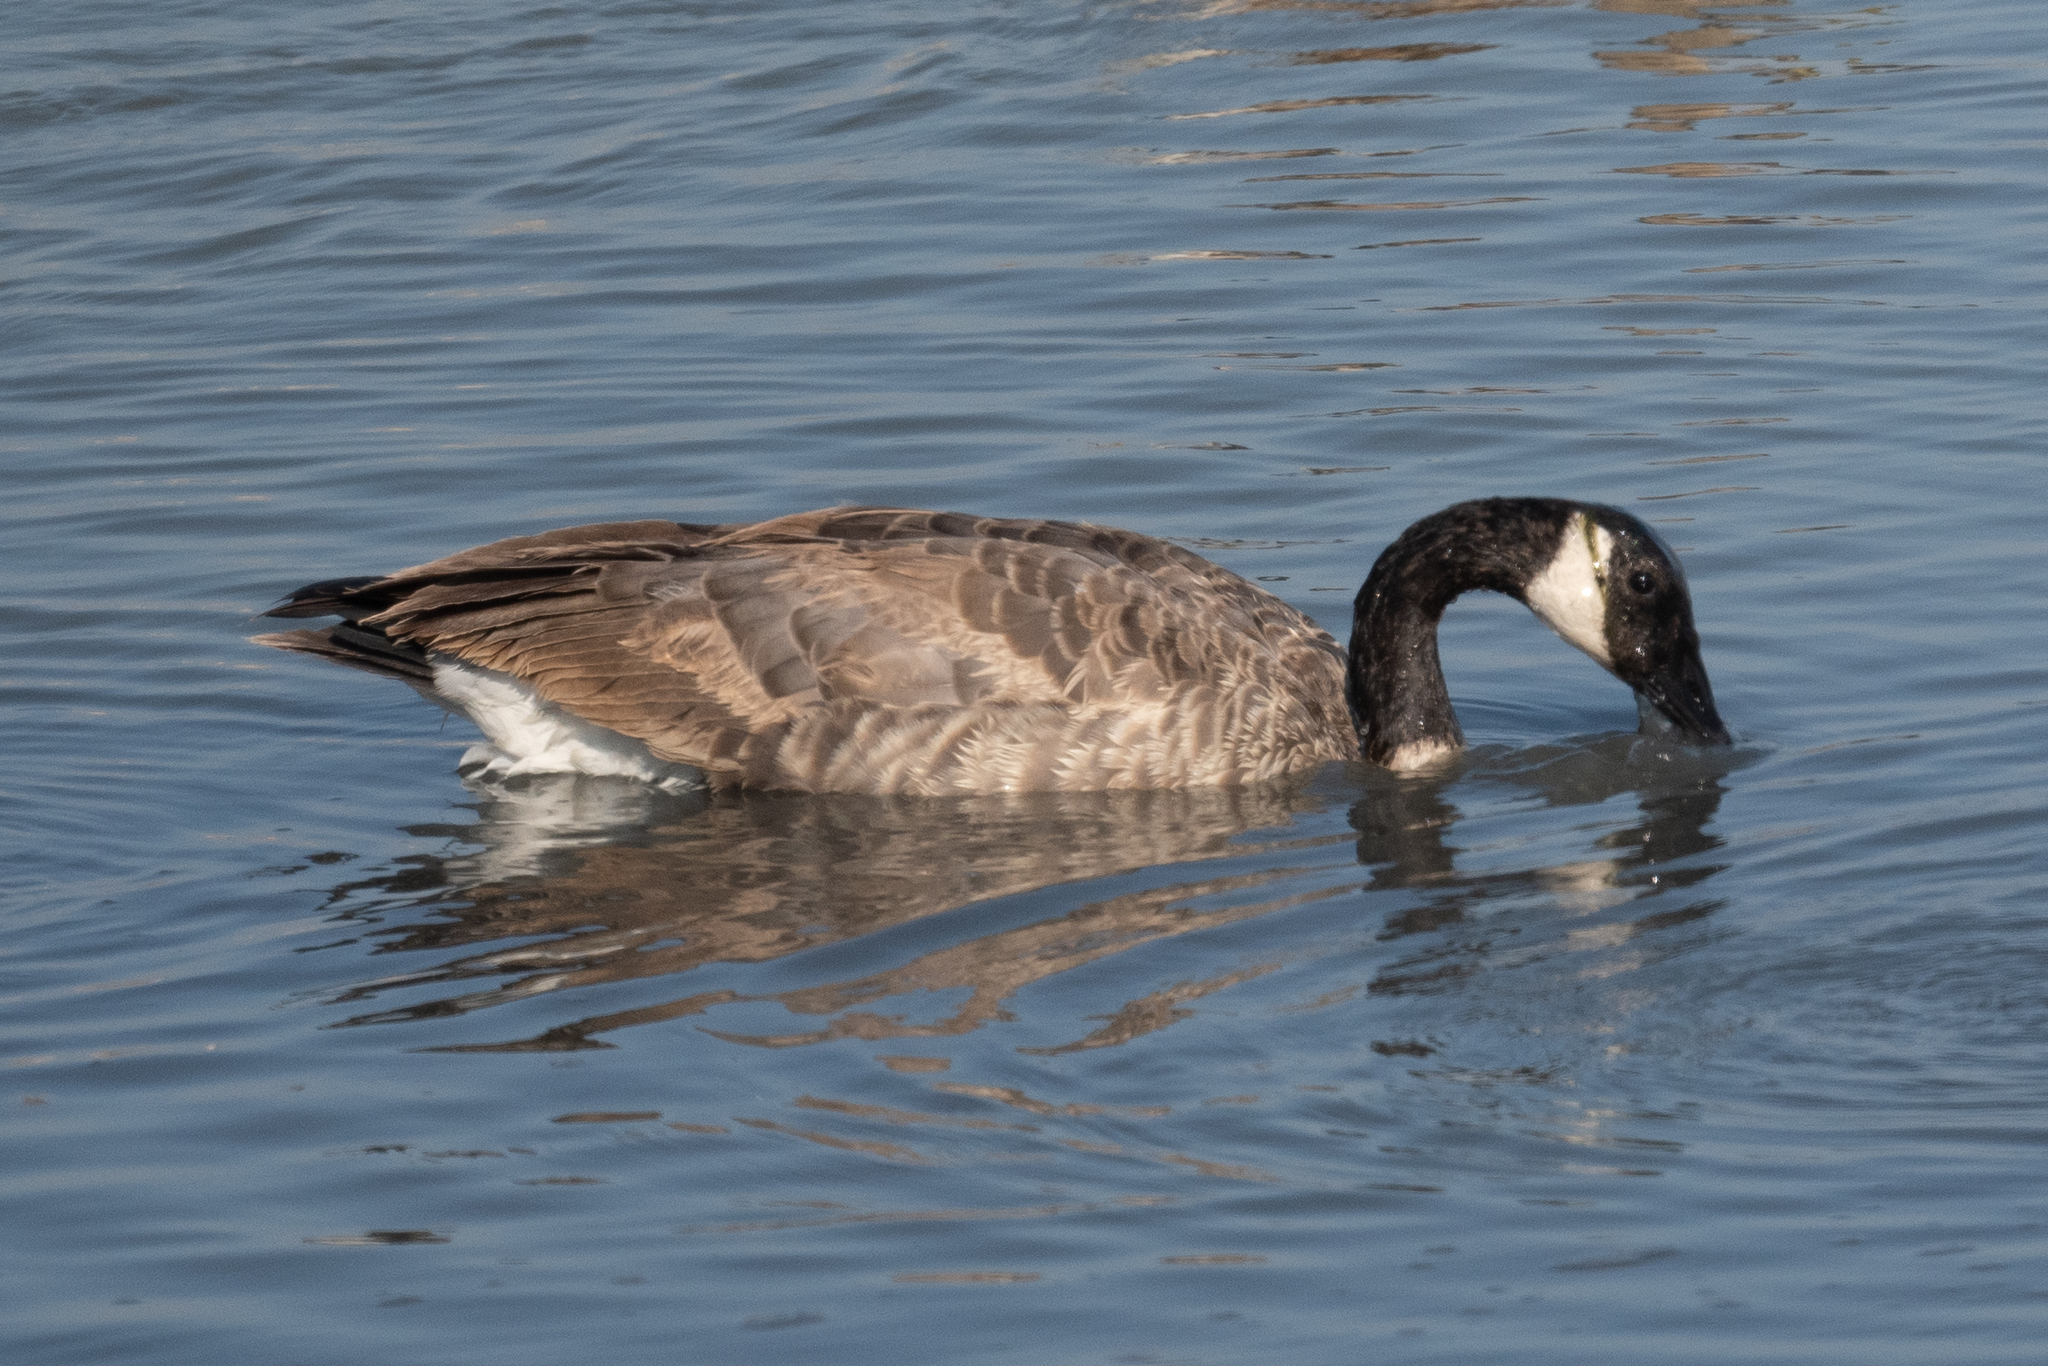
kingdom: Animalia
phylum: Chordata
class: Aves
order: Anseriformes
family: Anatidae
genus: Branta
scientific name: Branta canadensis
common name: Canada goose
